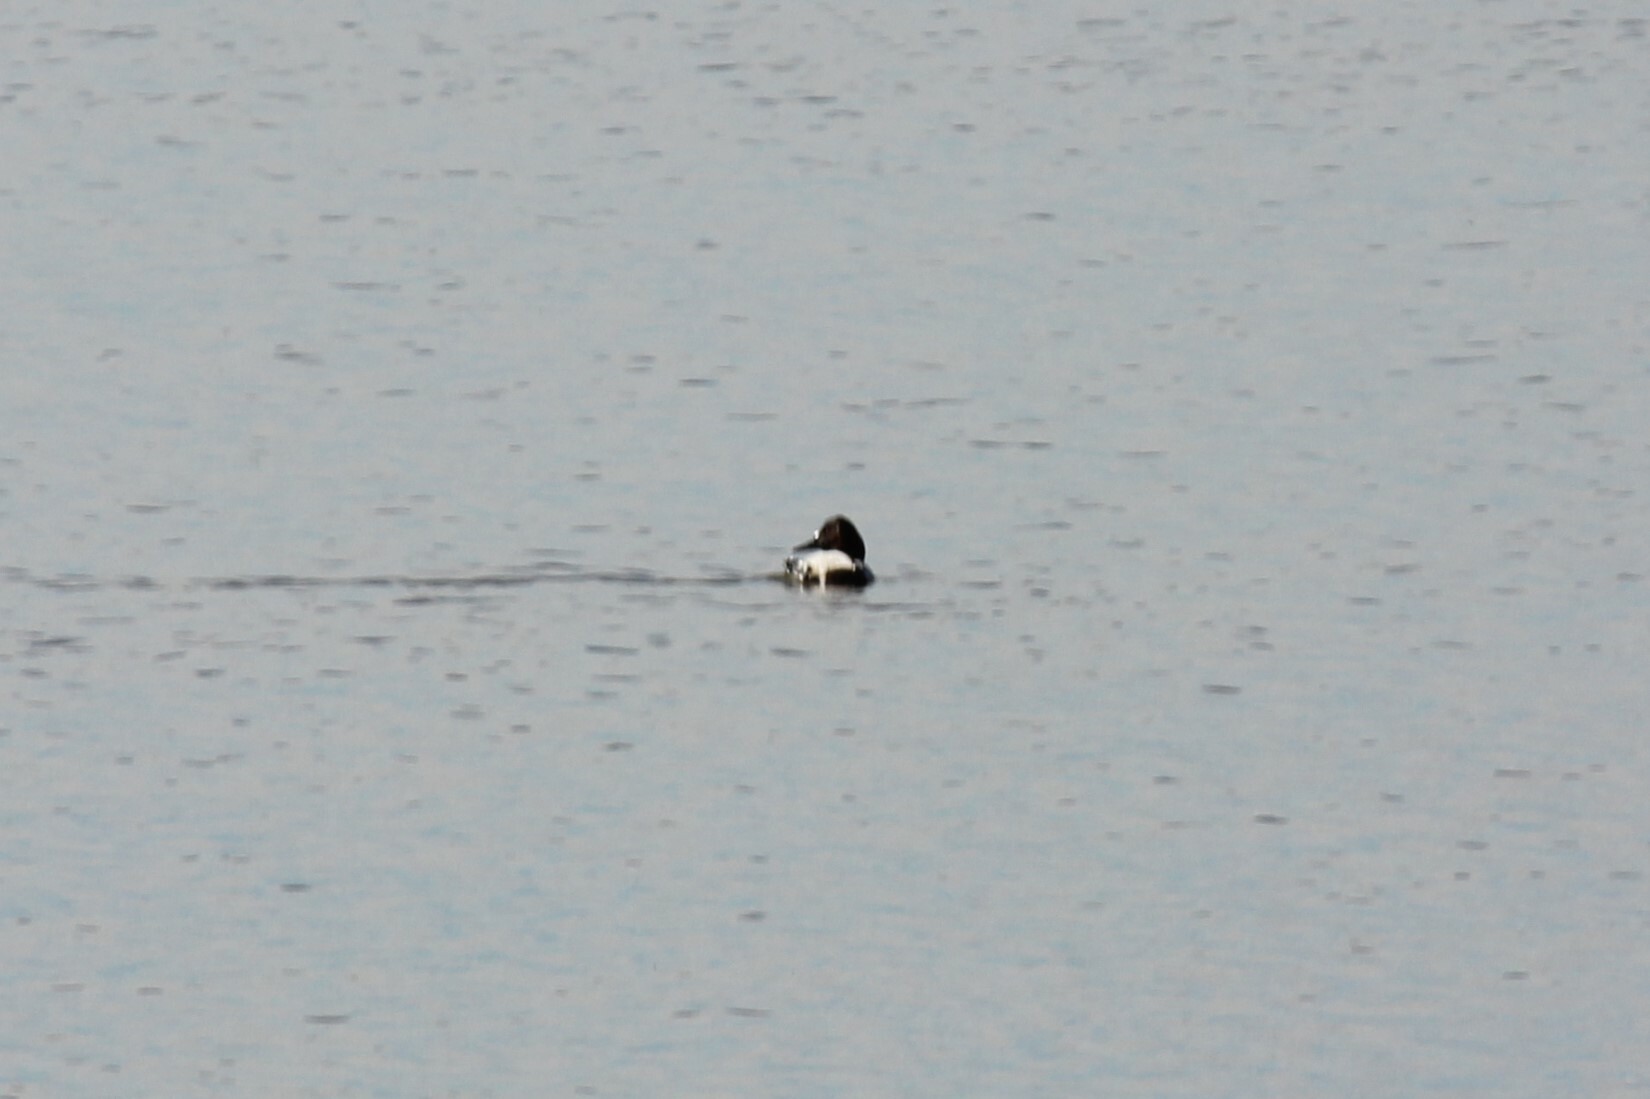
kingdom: Animalia
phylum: Chordata
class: Aves
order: Anseriformes
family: Anatidae
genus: Aythya
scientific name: Aythya valisineria
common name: Canvasback
